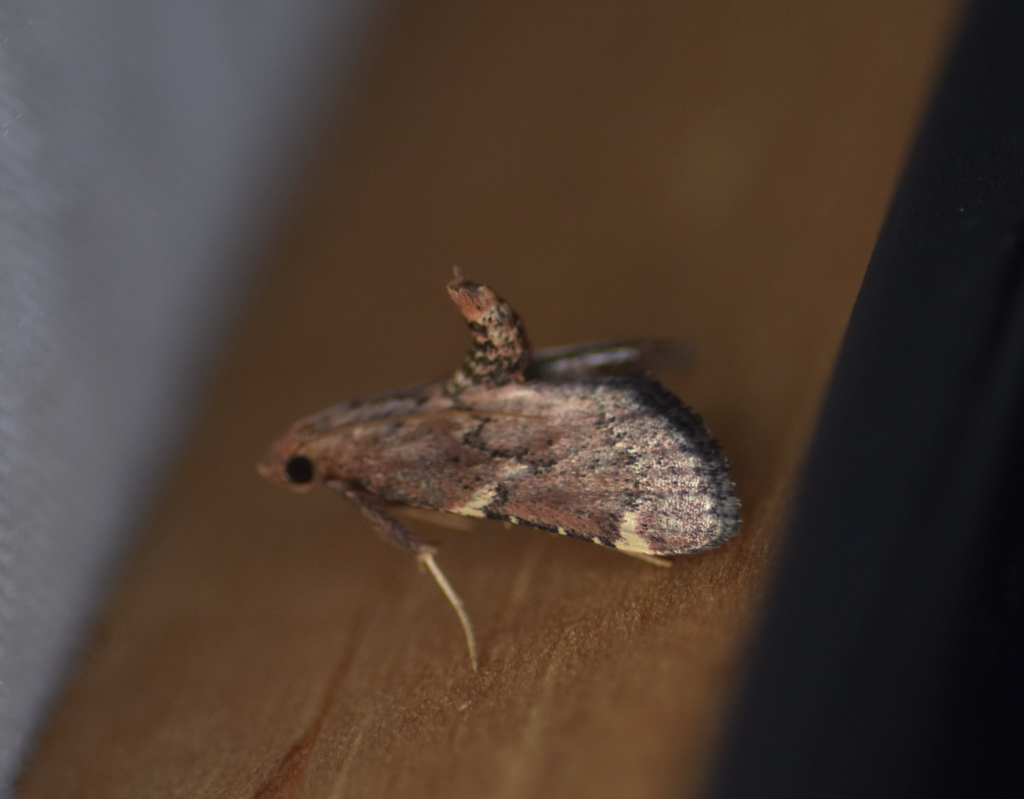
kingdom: Animalia
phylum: Arthropoda
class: Insecta
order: Lepidoptera
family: Pyralidae
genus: Hypsopygia
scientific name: Hypsopygia intermedialis
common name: Red-shawled moth
